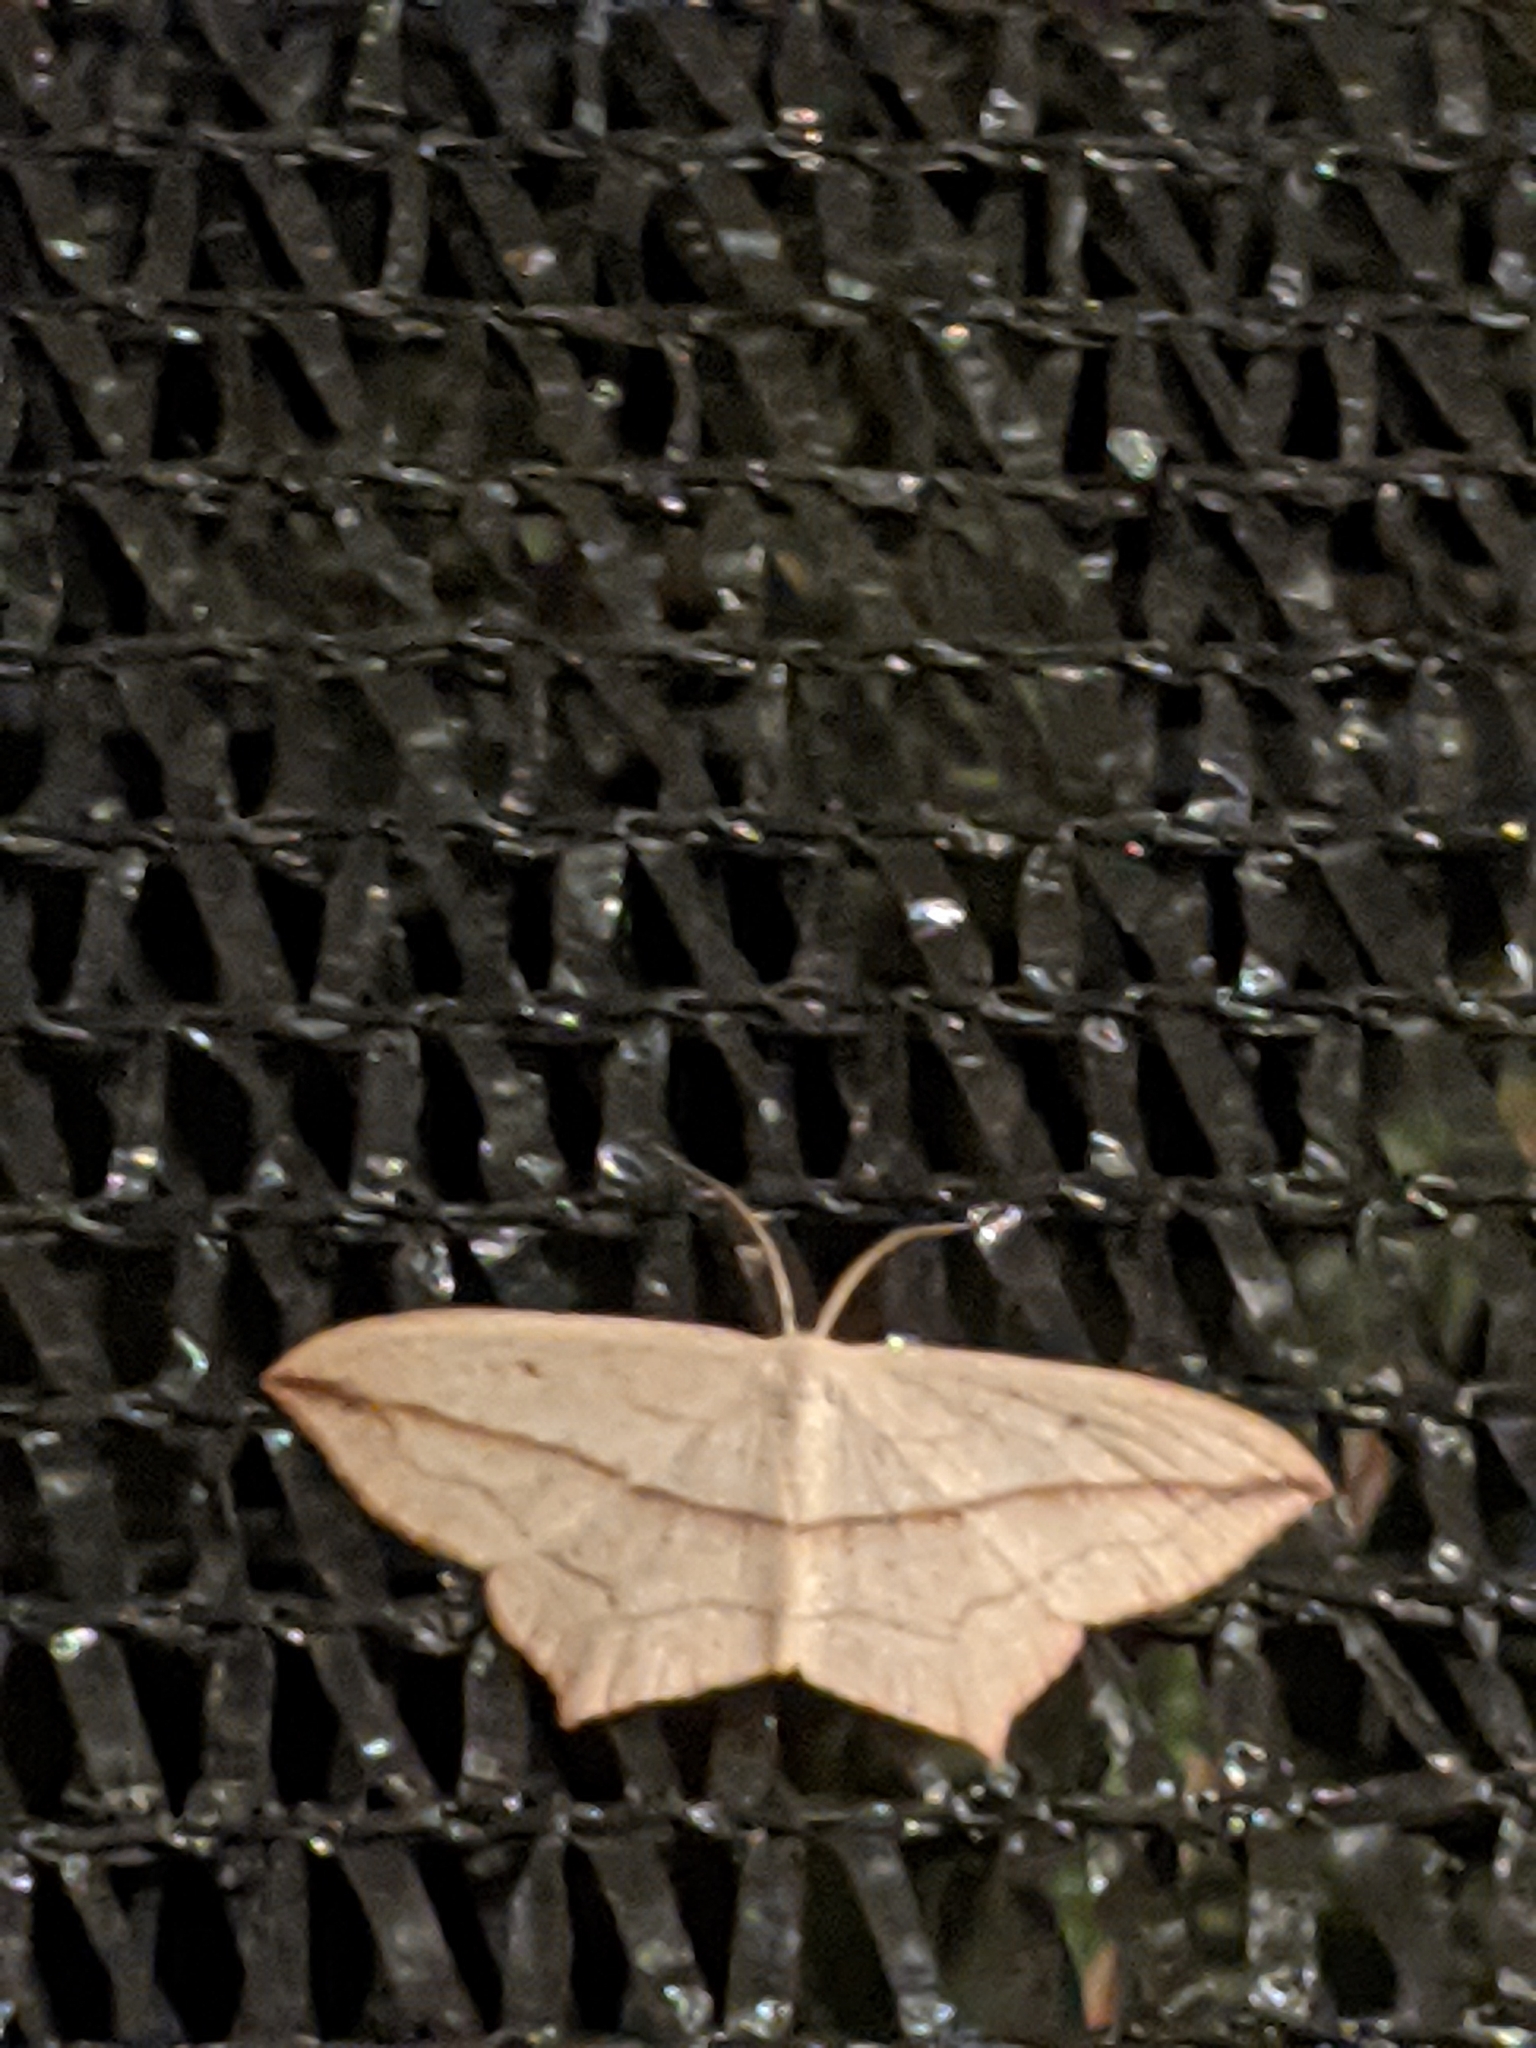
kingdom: Animalia
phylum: Arthropoda
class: Insecta
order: Lepidoptera
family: Geometridae
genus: Timandra
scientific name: Timandra comae
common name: Blood-vein
